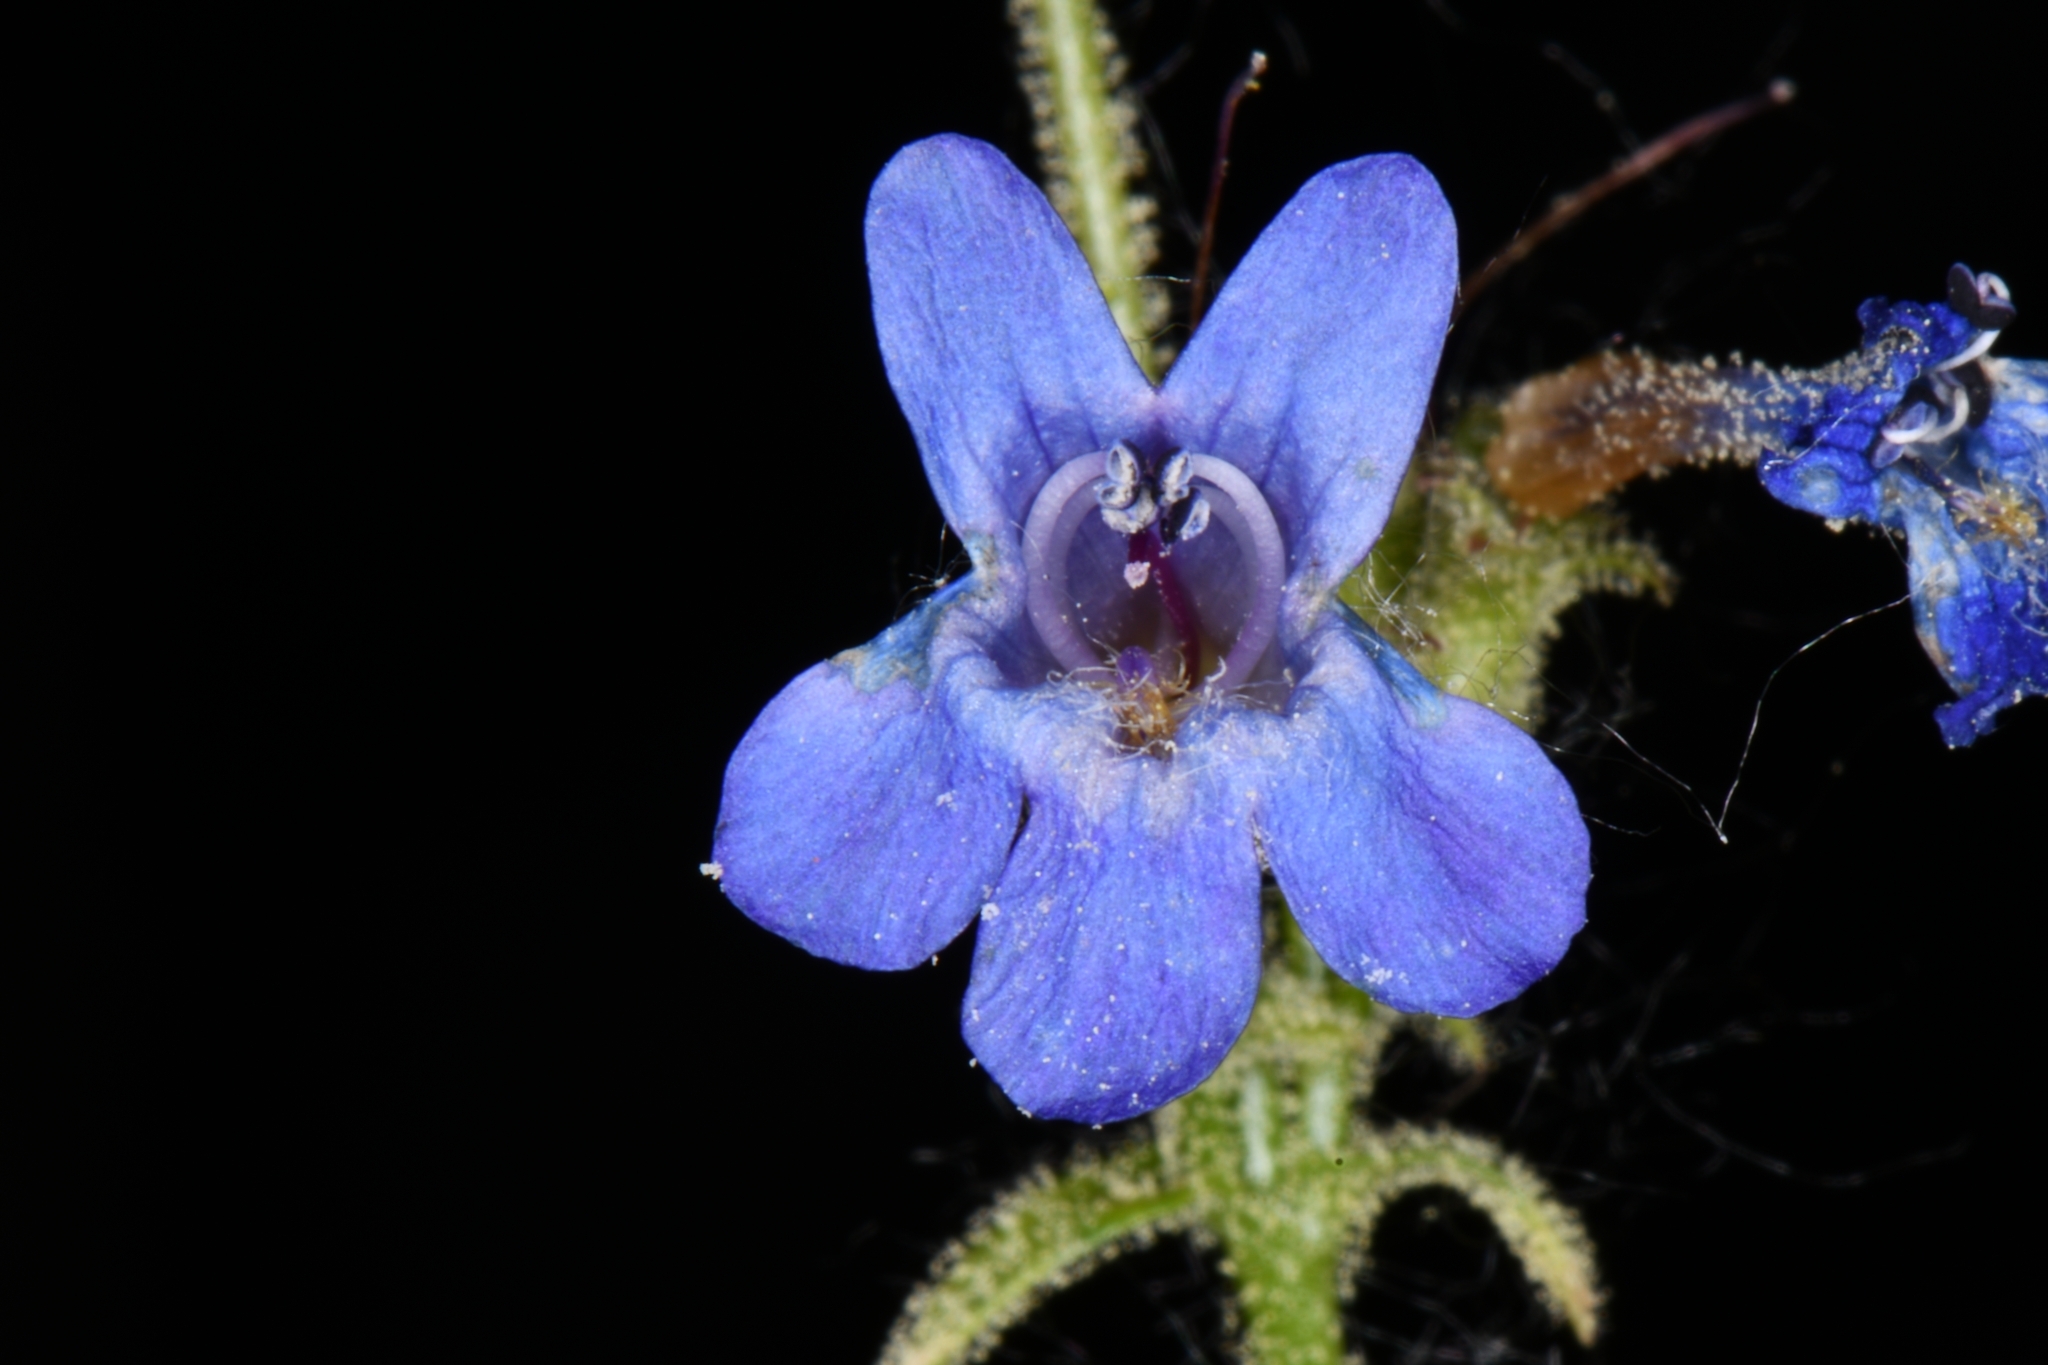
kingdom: Plantae
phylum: Tracheophyta
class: Magnoliopsida
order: Lamiales
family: Plantaginaceae
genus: Penstemon
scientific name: Penstemon humilis
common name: Low penstemon
